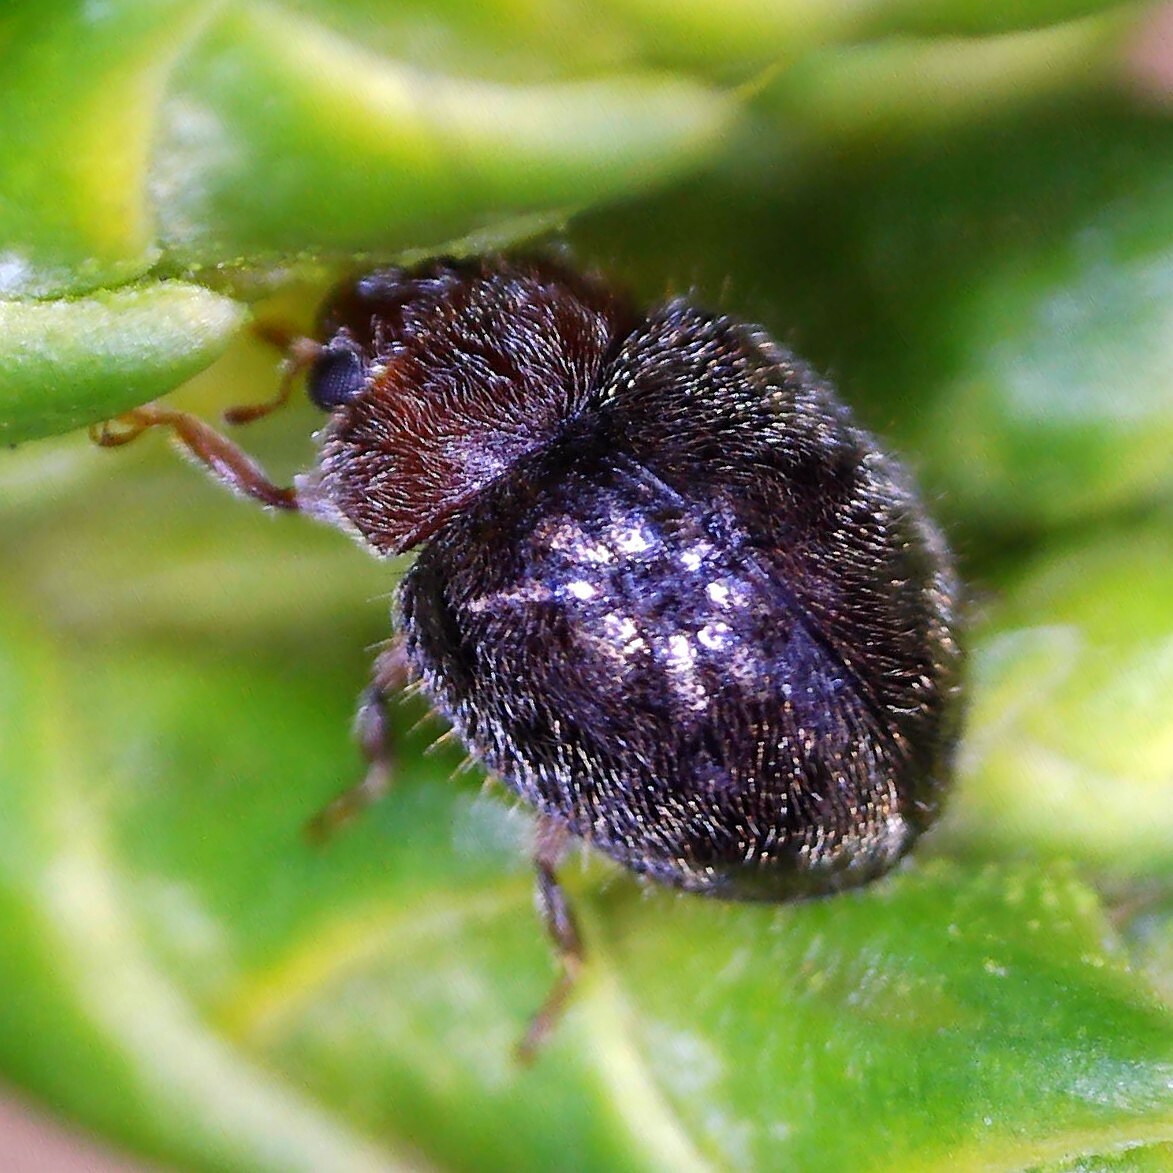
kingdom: Animalia
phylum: Arthropoda
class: Insecta
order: Coleoptera
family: Coccinellidae
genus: Rhyzobius
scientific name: Rhyzobius lophanthae
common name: Scale-eating ladybird beetle
